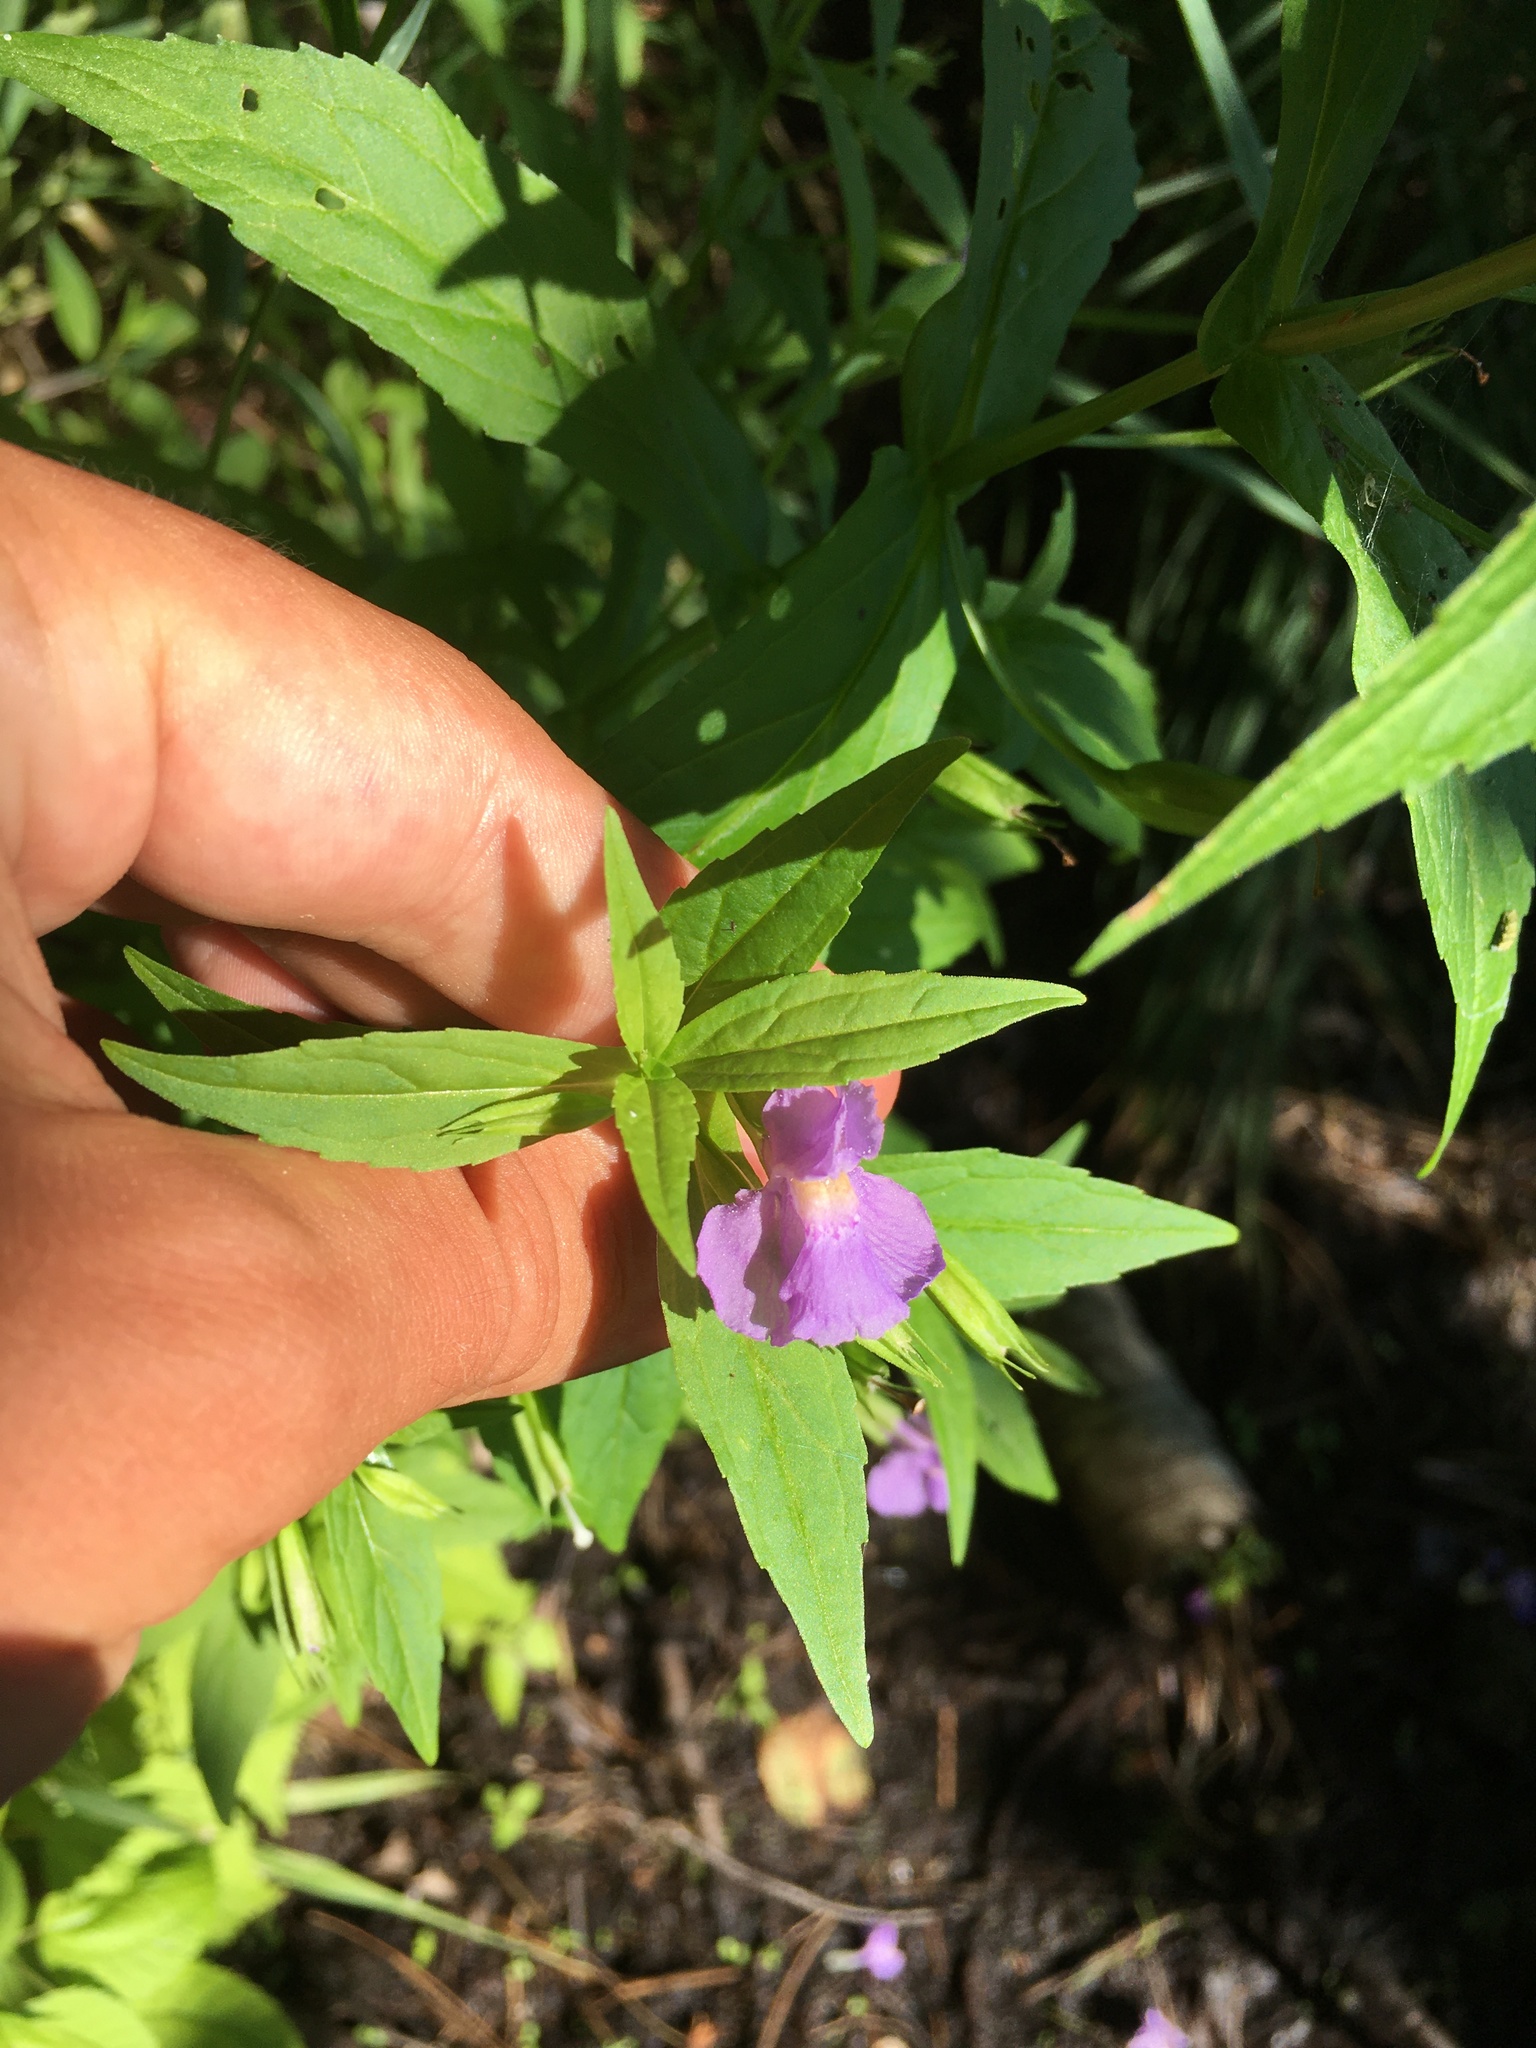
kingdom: Plantae
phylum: Tracheophyta
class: Magnoliopsida
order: Lamiales
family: Phrymaceae
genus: Mimulus
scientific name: Mimulus ringens
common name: Allegheny monkeyflower
